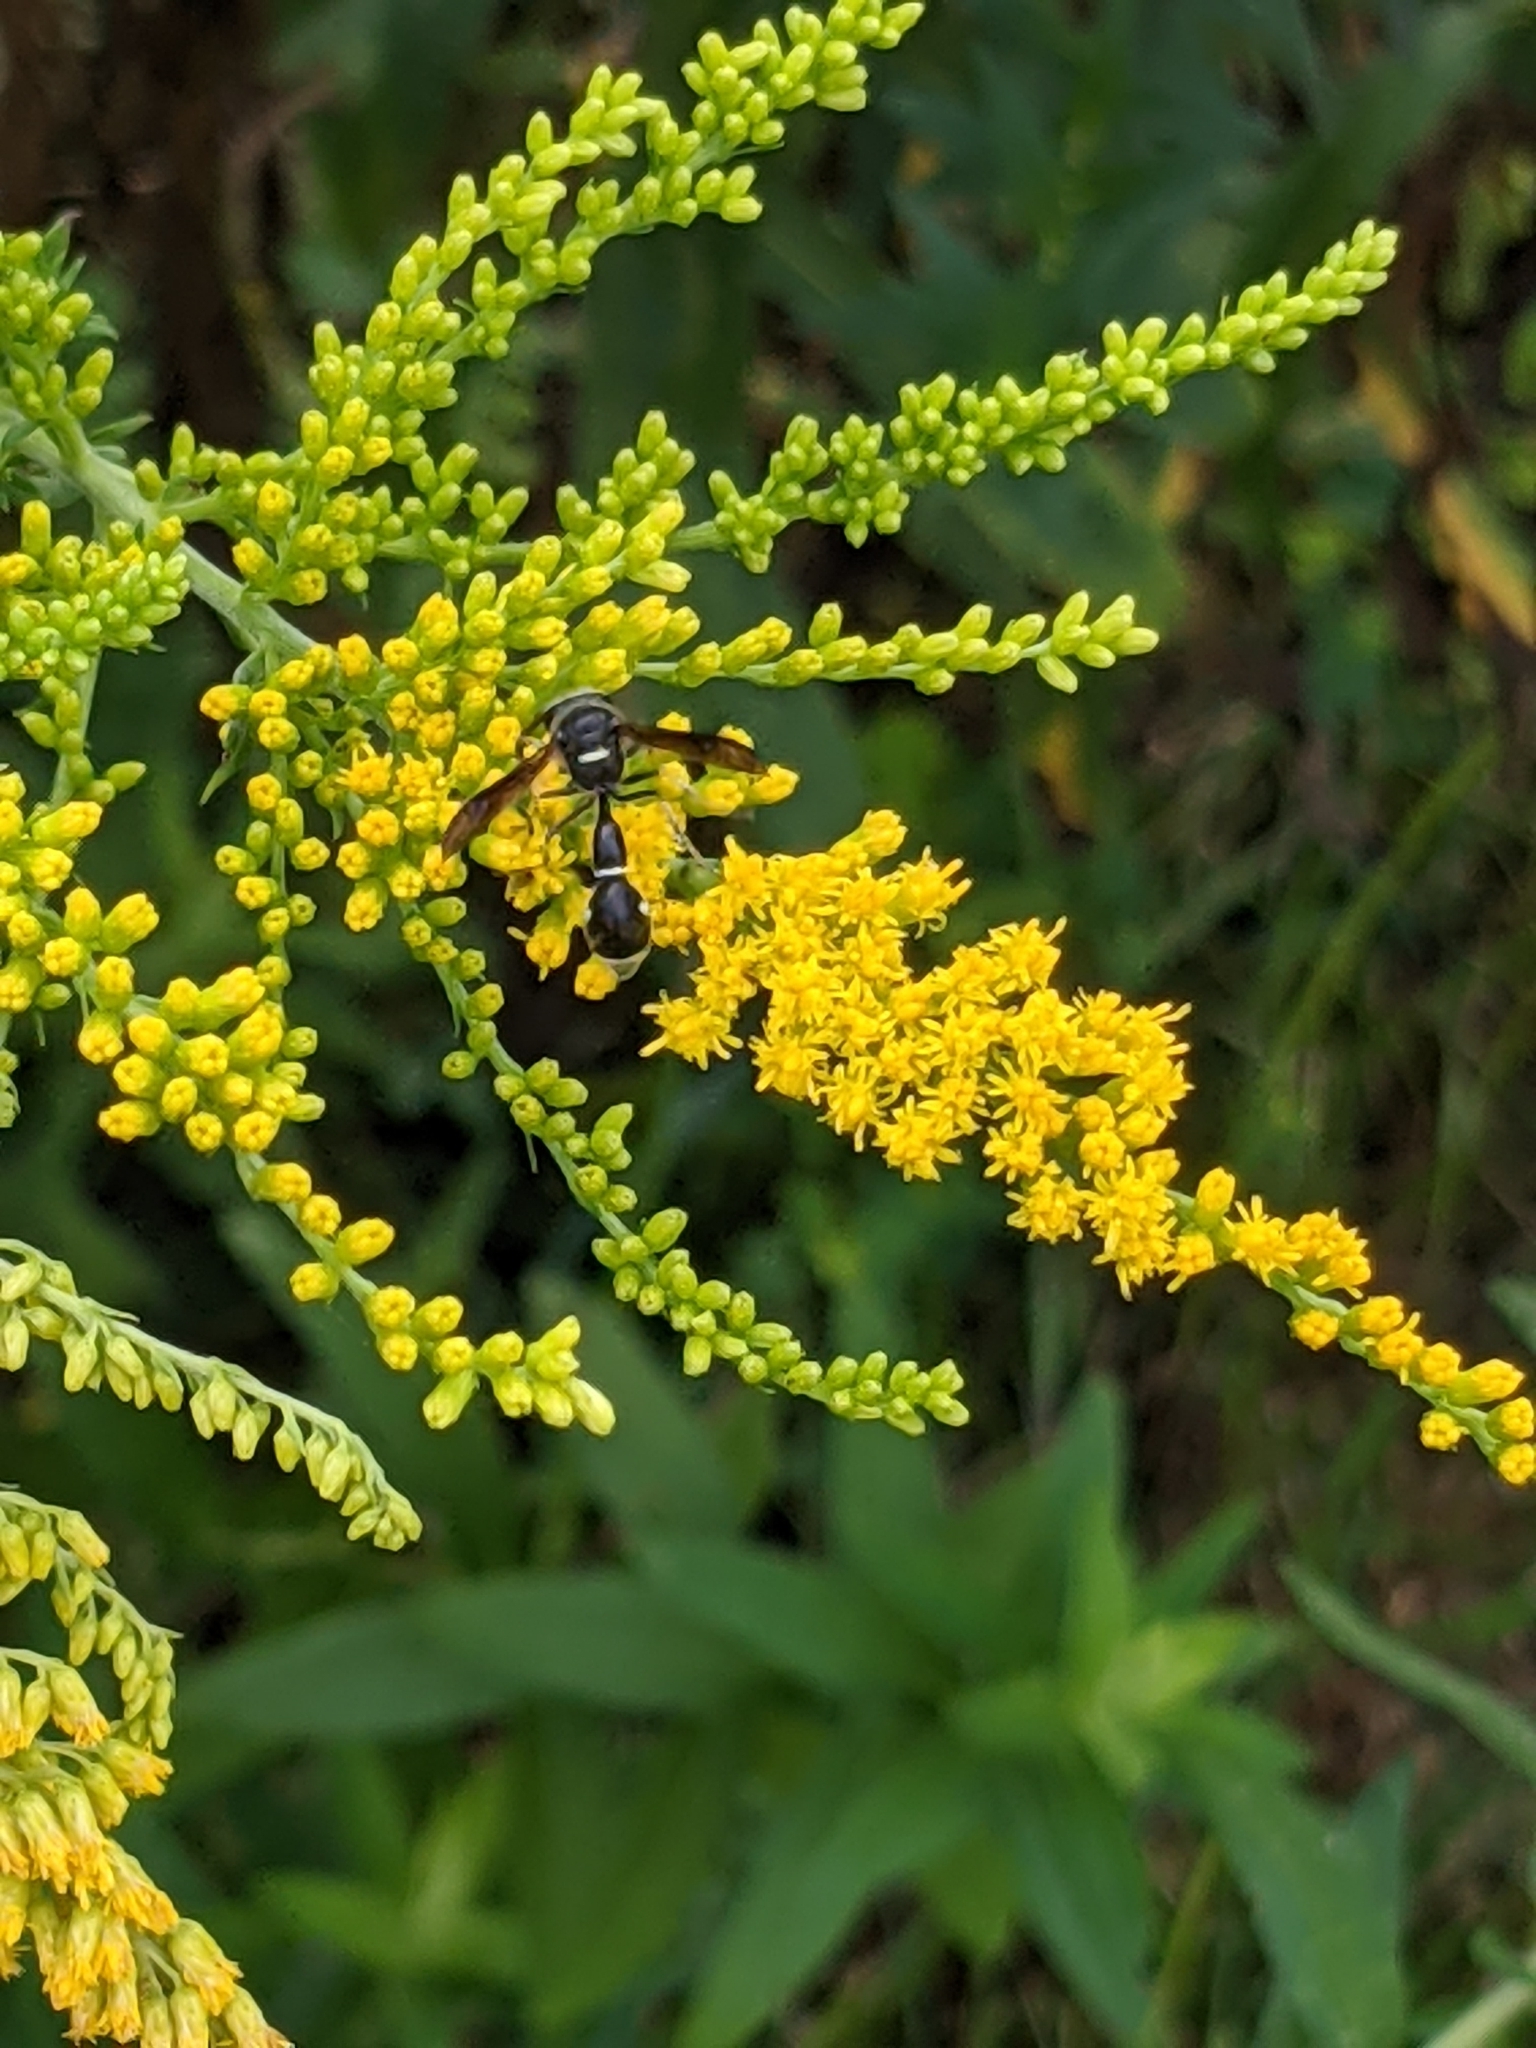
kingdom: Animalia
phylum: Arthropoda
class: Insecta
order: Hymenoptera
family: Vespidae
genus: Eumenes
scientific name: Eumenes fraternus
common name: Fraternal potter wasp
